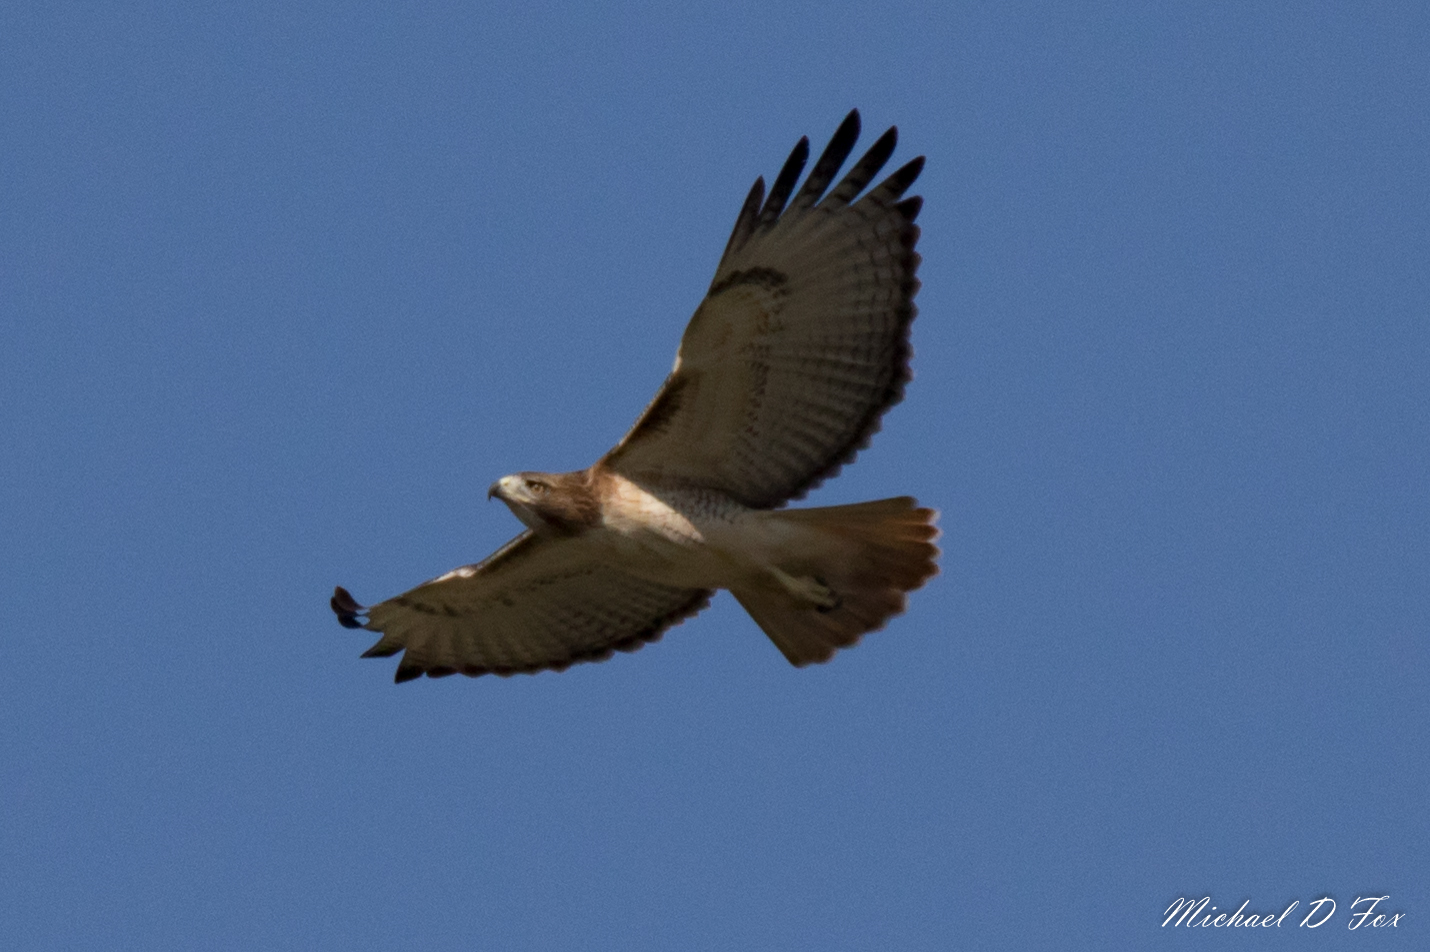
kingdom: Animalia
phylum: Chordata
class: Aves
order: Accipitriformes
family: Accipitridae
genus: Buteo
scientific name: Buteo jamaicensis
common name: Red-tailed hawk
